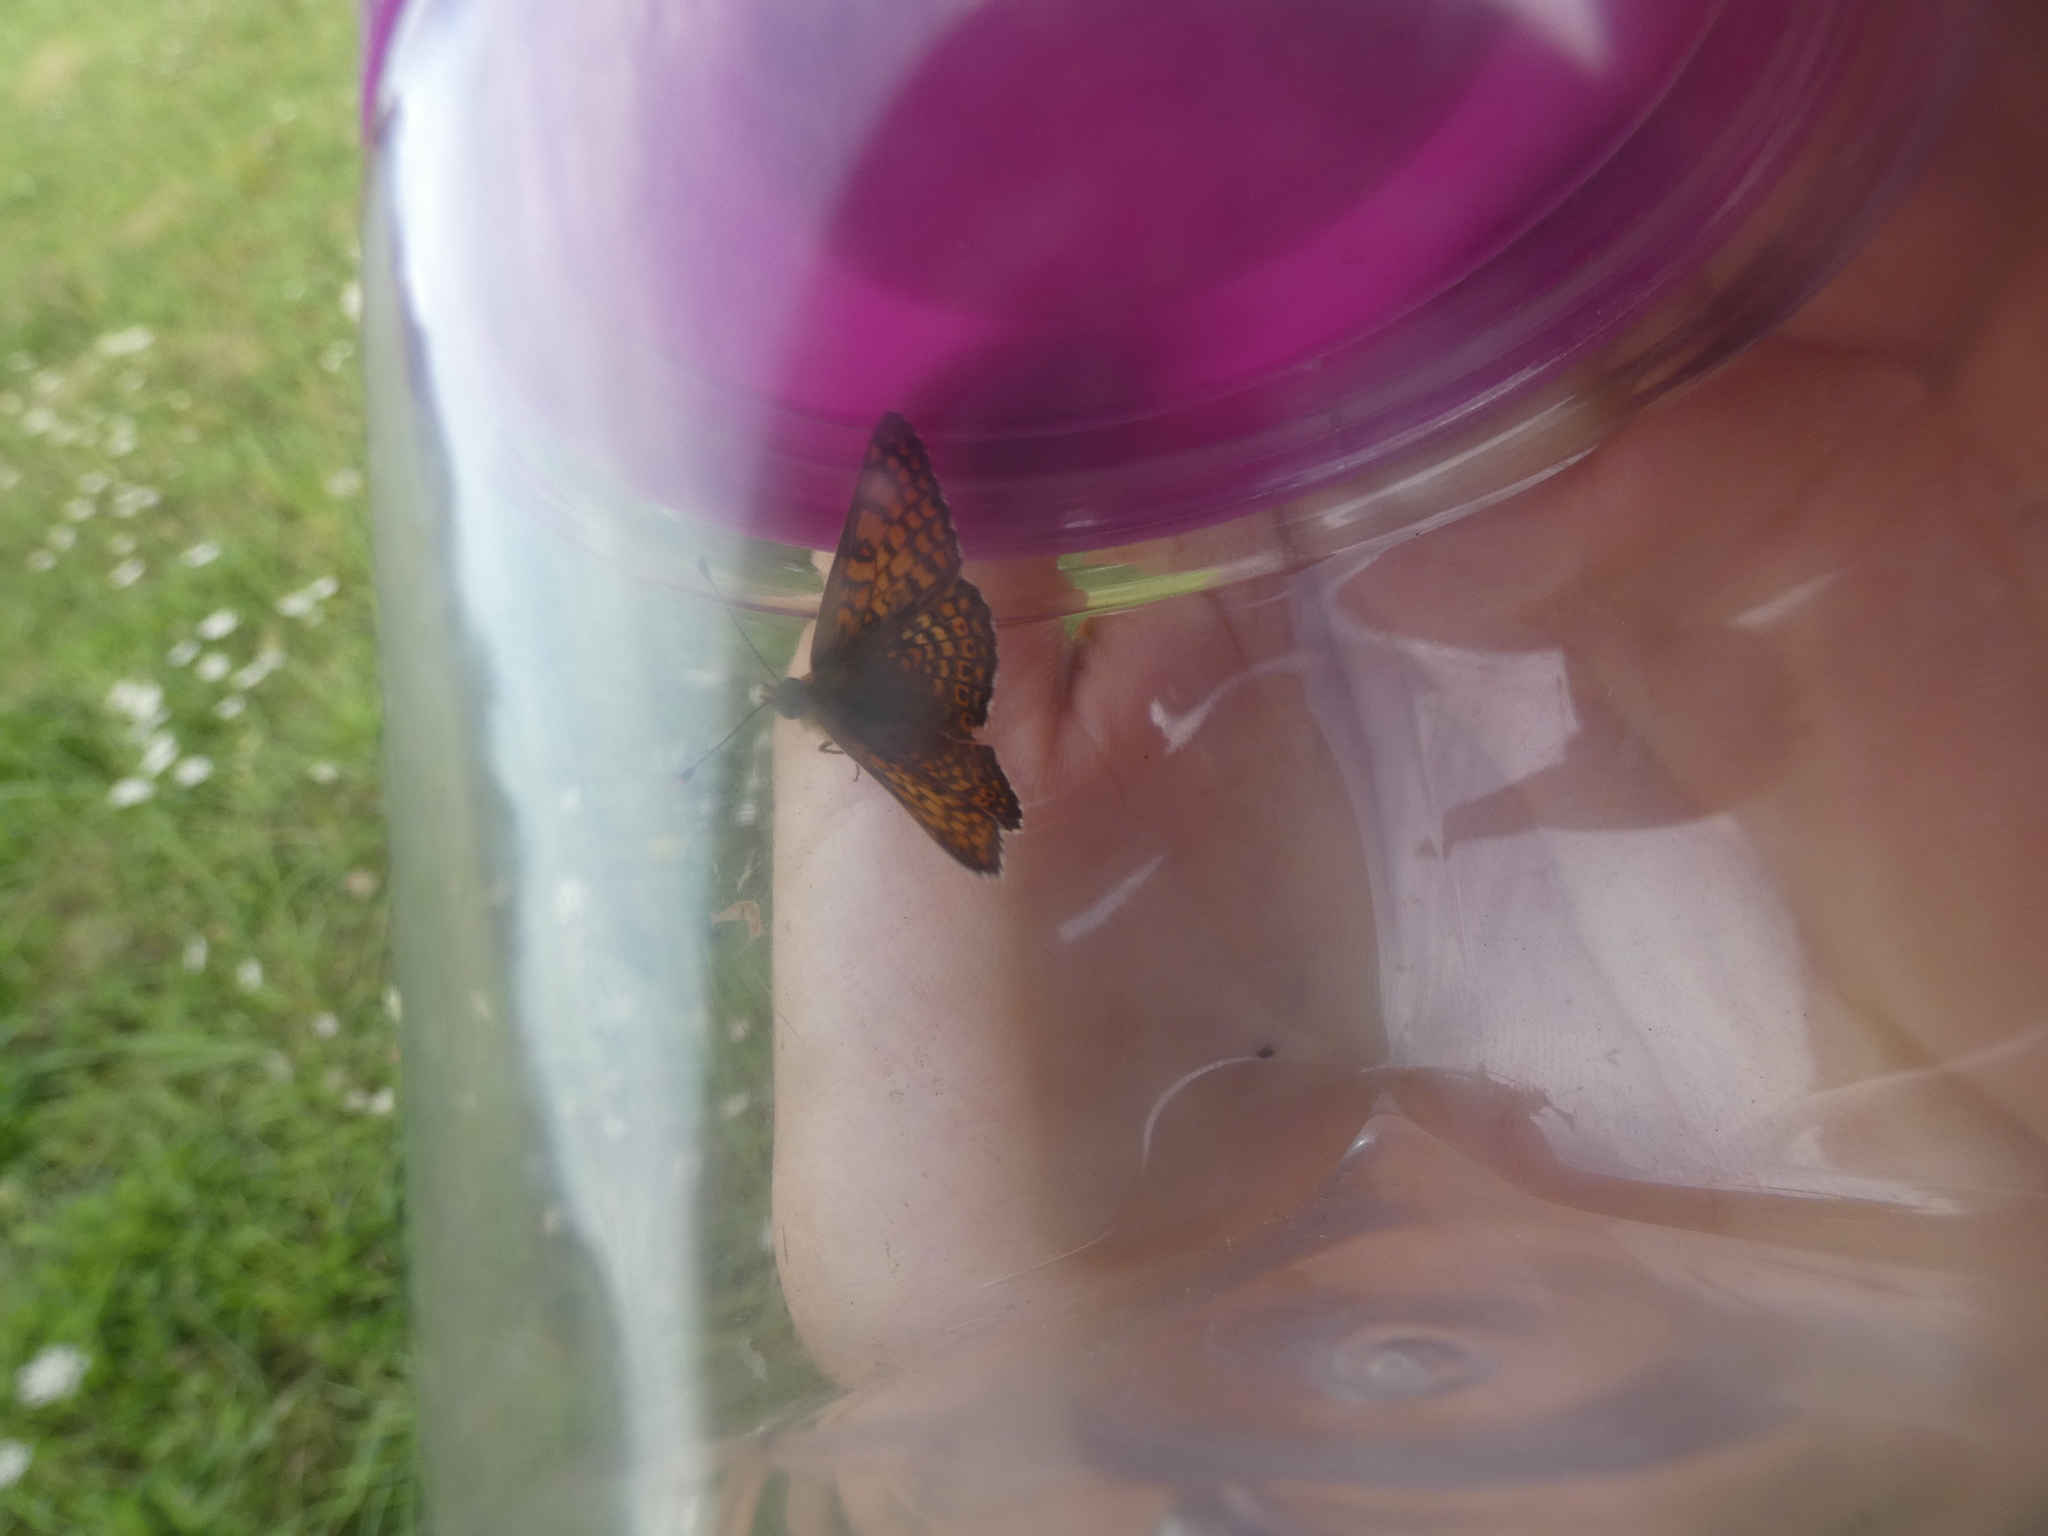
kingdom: Animalia
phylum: Arthropoda
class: Insecta
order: Lepidoptera
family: Nymphalidae
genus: Melitaea
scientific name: Melitaea cinxia
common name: Glanville fritillary
